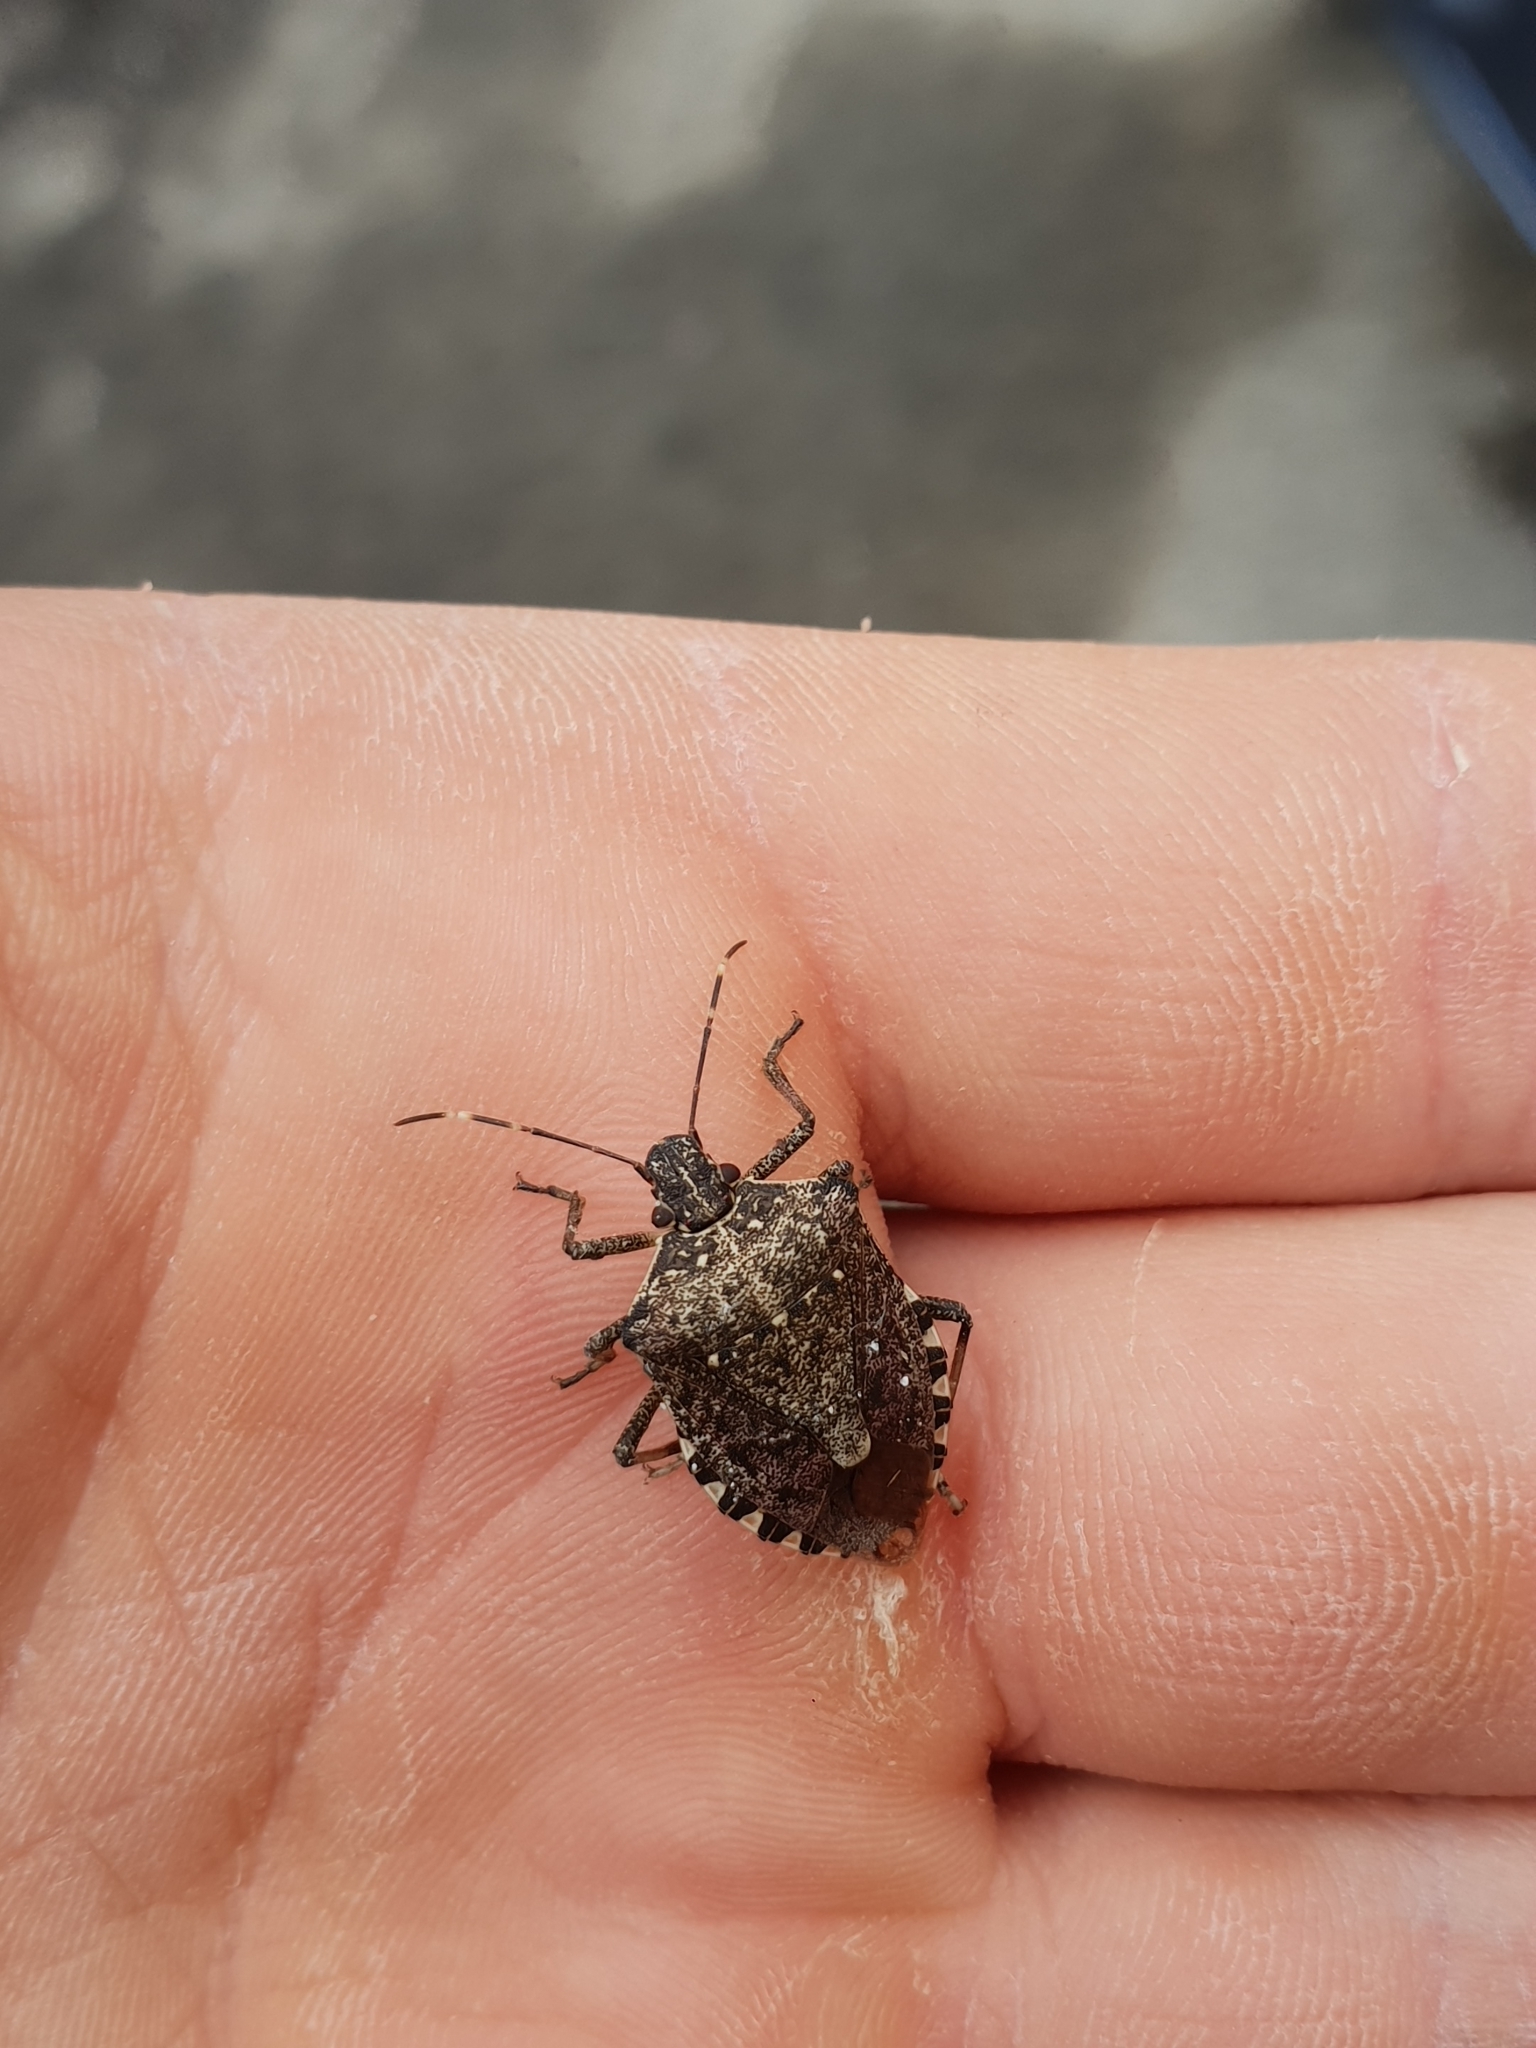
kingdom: Animalia
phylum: Arthropoda
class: Insecta
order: Hemiptera
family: Pentatomidae
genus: Halyomorpha
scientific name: Halyomorpha halys
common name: Brown marmorated stink bug
